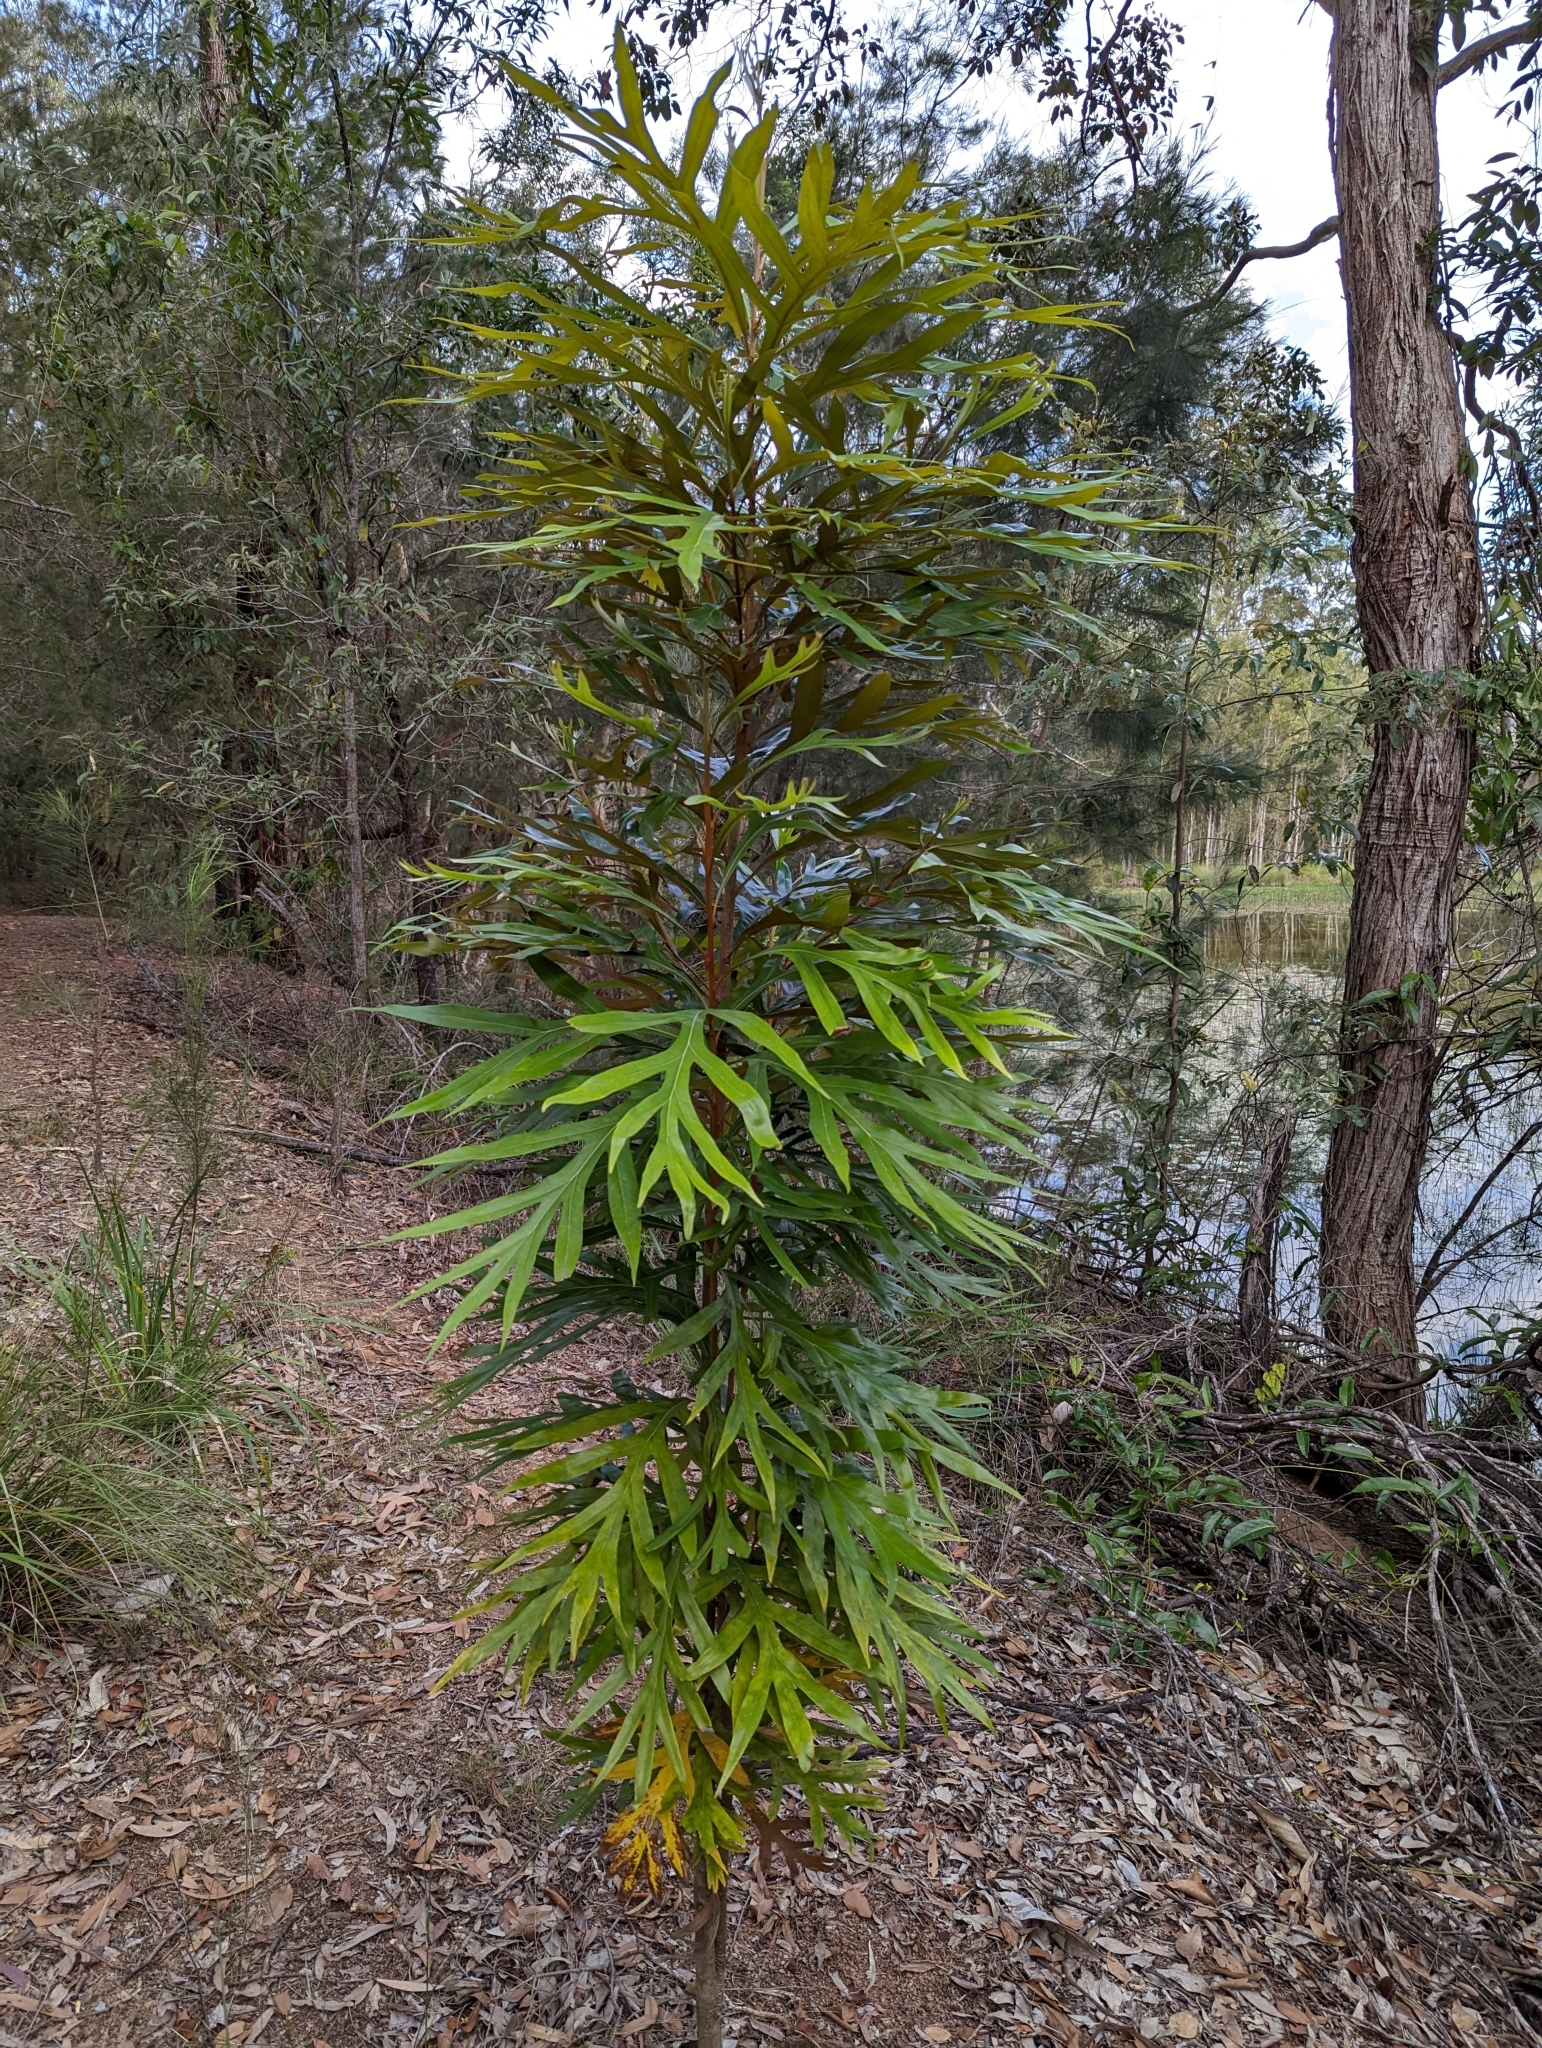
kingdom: Plantae
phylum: Tracheophyta
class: Magnoliopsida
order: Proteales
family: Proteaceae
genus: Grevillea
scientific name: Grevillea baileyana
